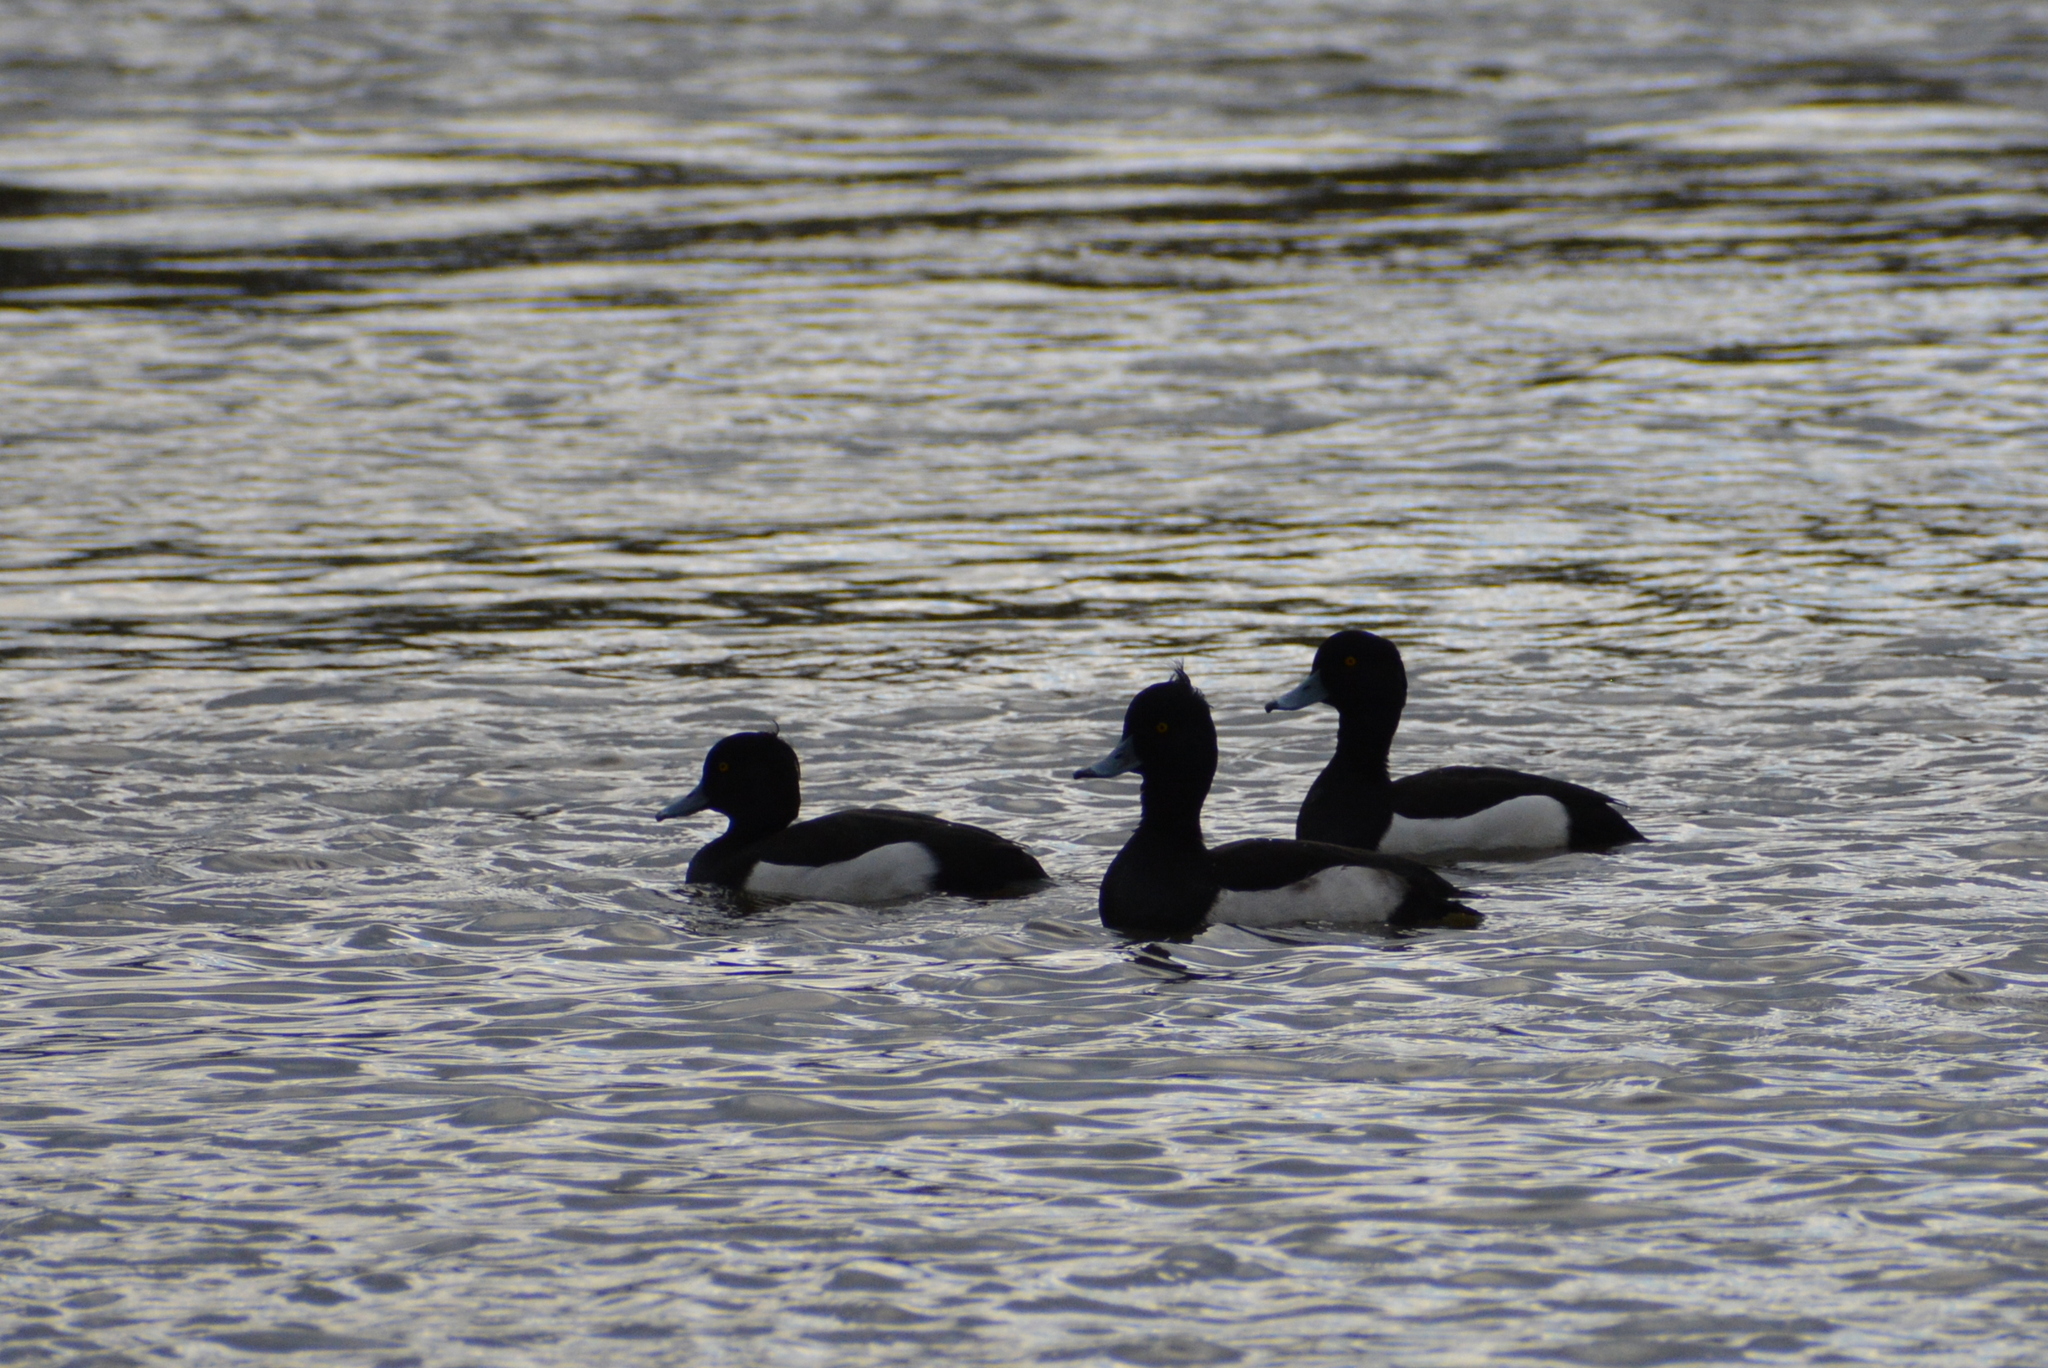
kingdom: Animalia
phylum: Chordata
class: Aves
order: Anseriformes
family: Anatidae
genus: Aythya
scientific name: Aythya fuligula
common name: Tufted duck
